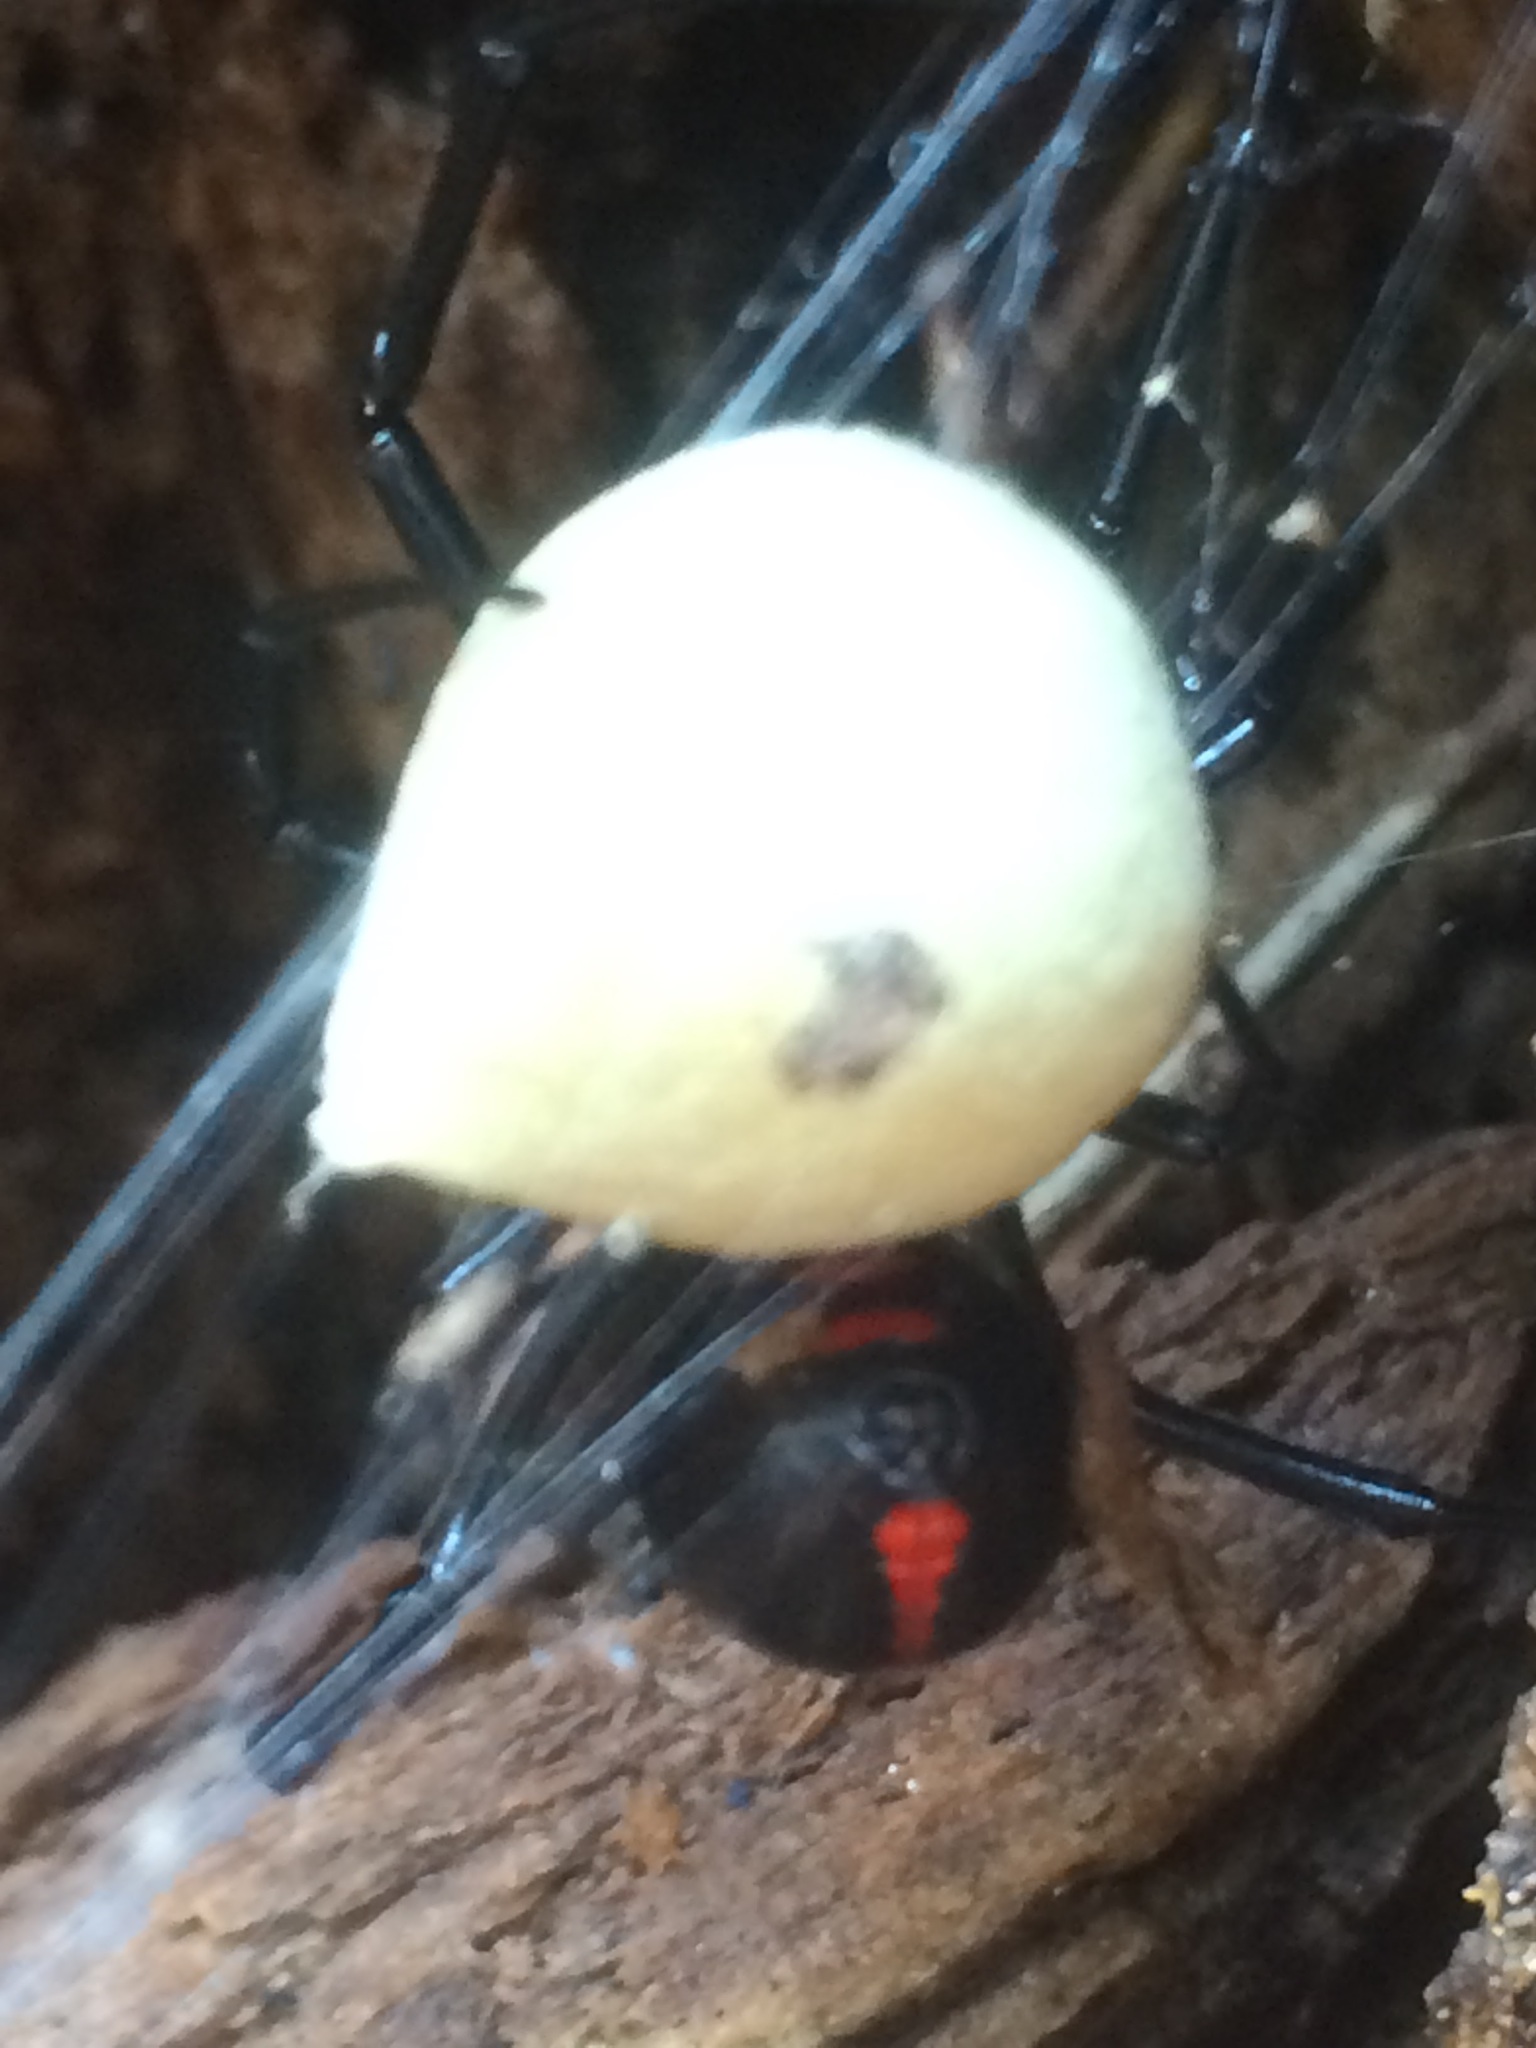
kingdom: Animalia
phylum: Arthropoda
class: Arachnida
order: Araneae
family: Theridiidae
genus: Latrodectus
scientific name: Latrodectus variolus
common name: Northern black widow
